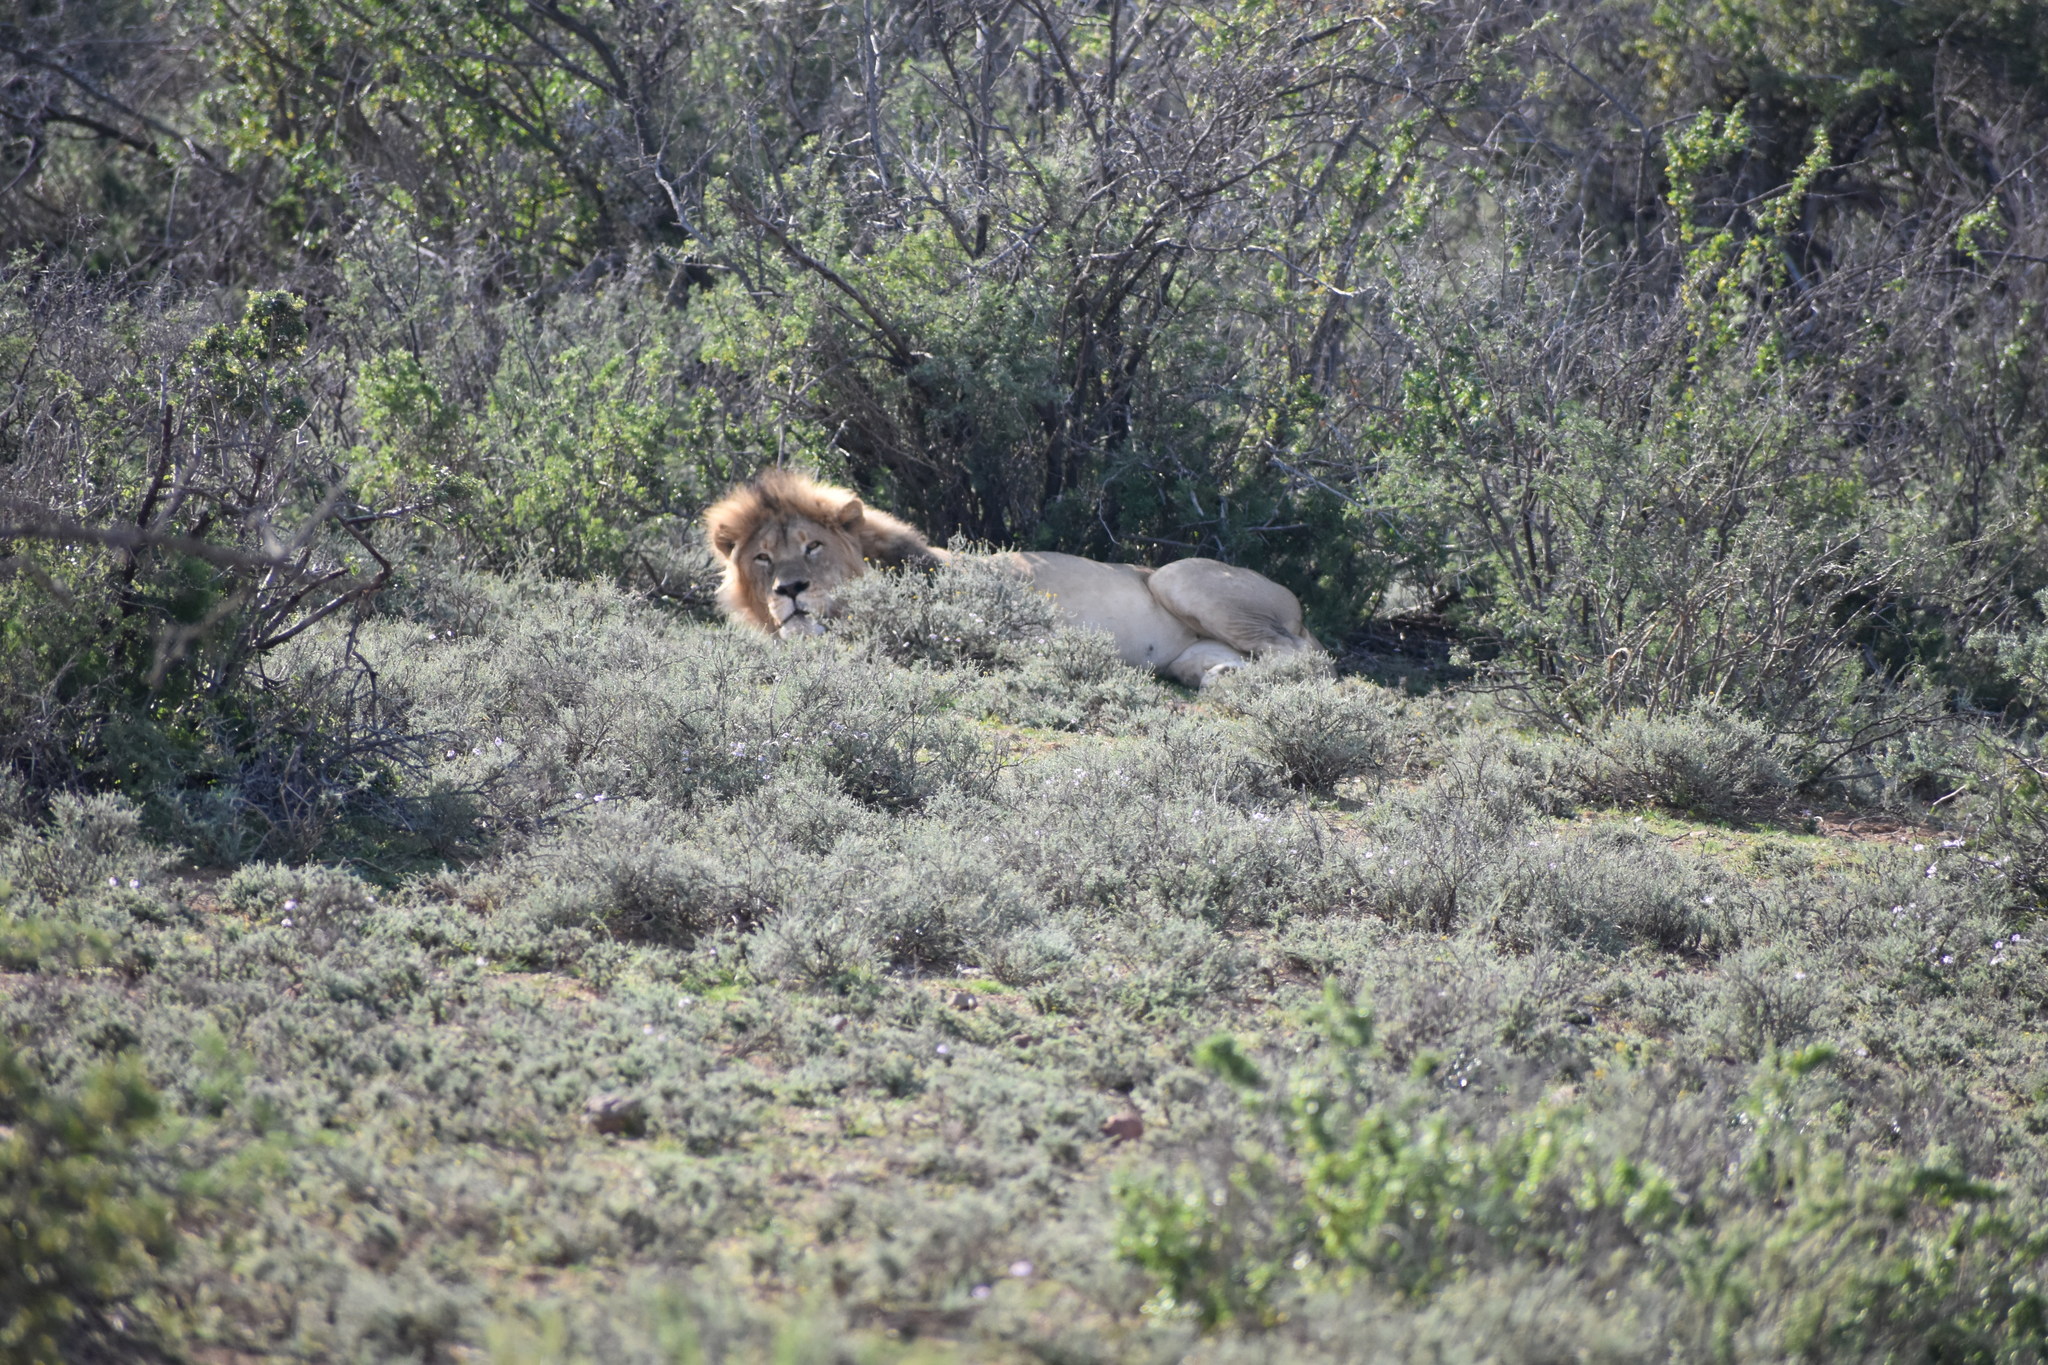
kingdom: Animalia
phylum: Chordata
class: Mammalia
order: Carnivora
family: Felidae
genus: Panthera
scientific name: Panthera leo
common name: Lion
